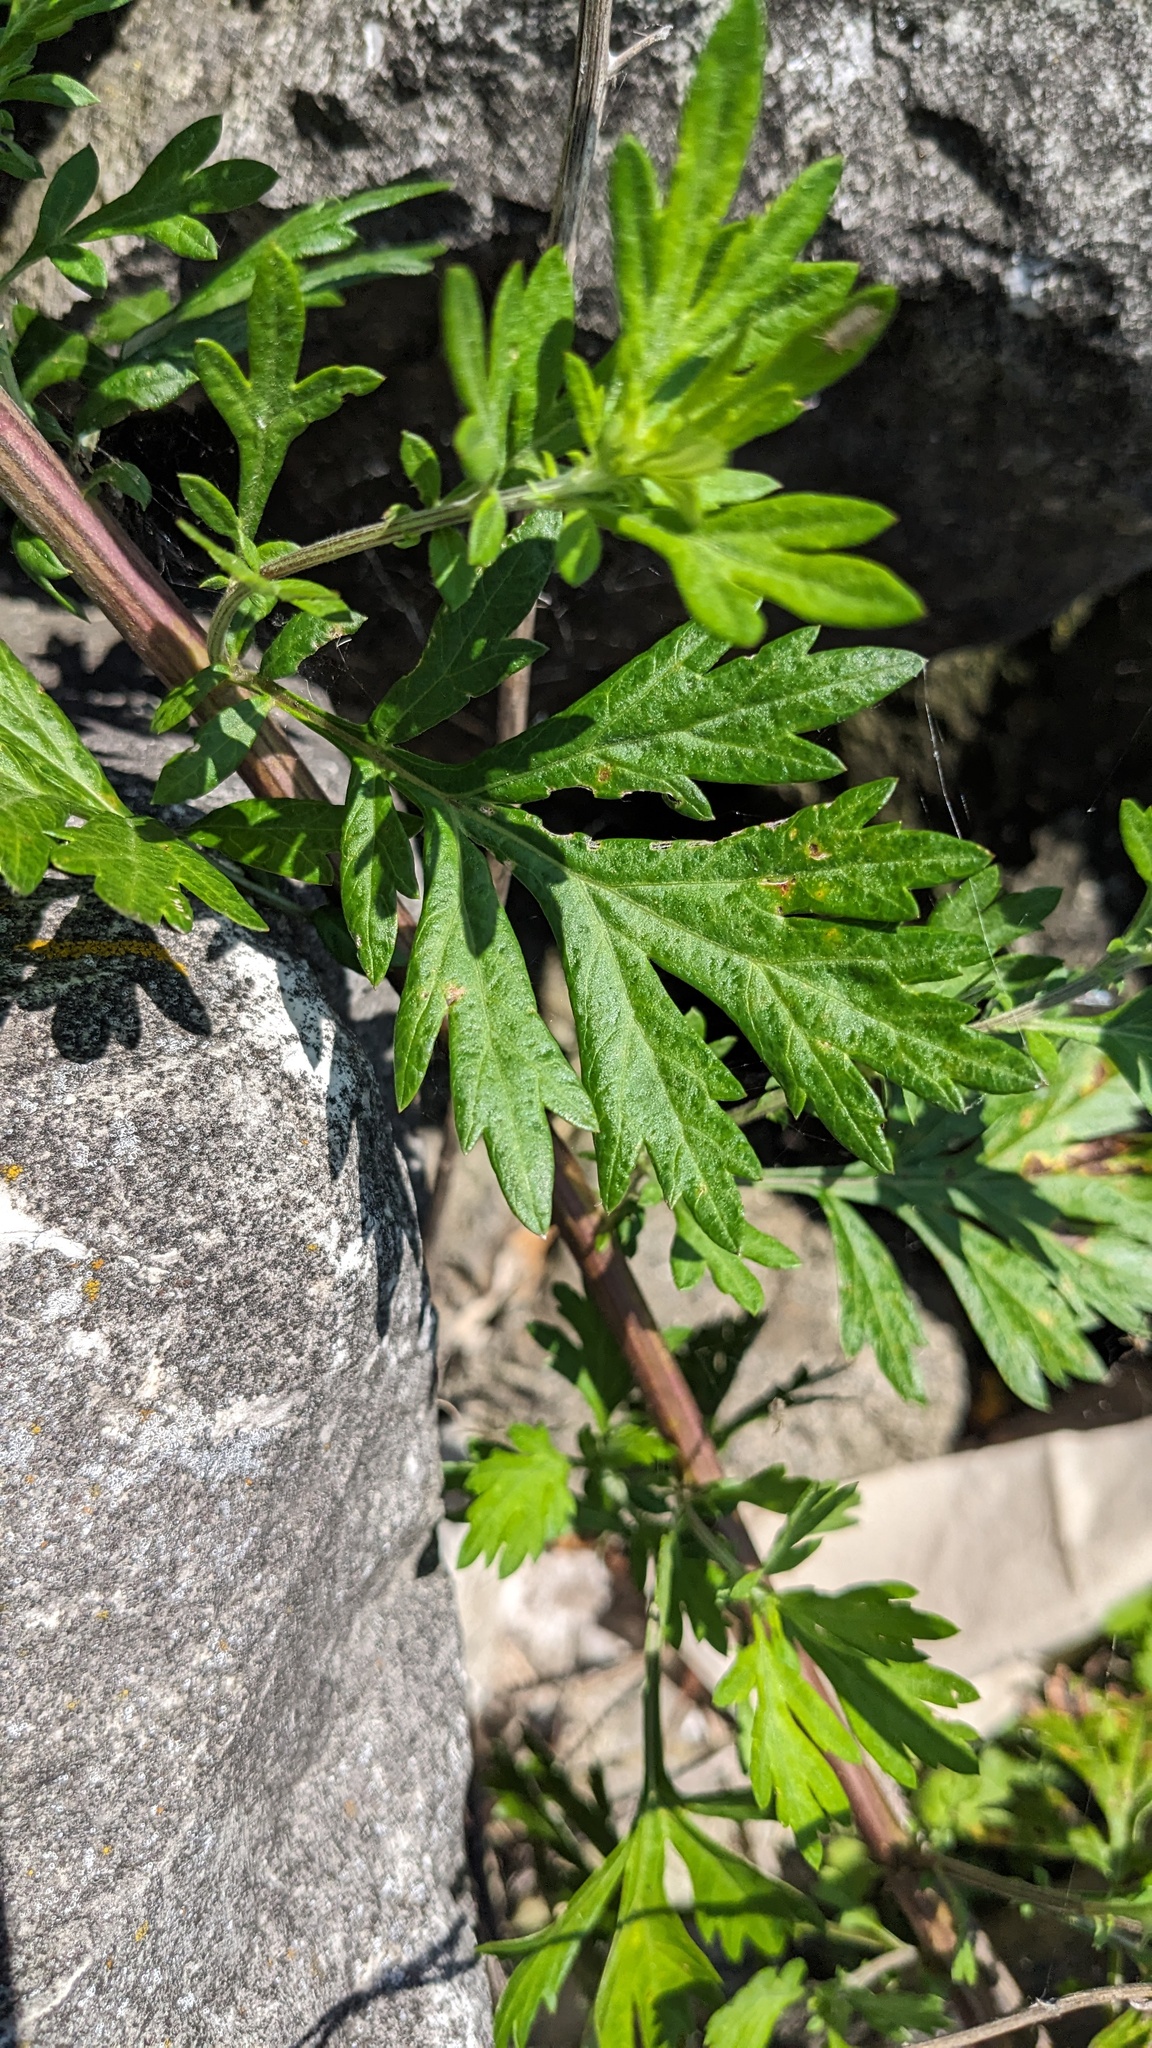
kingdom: Plantae
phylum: Tracheophyta
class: Magnoliopsida
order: Asterales
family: Asteraceae
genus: Artemisia
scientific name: Artemisia vulgaris
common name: Mugwort
